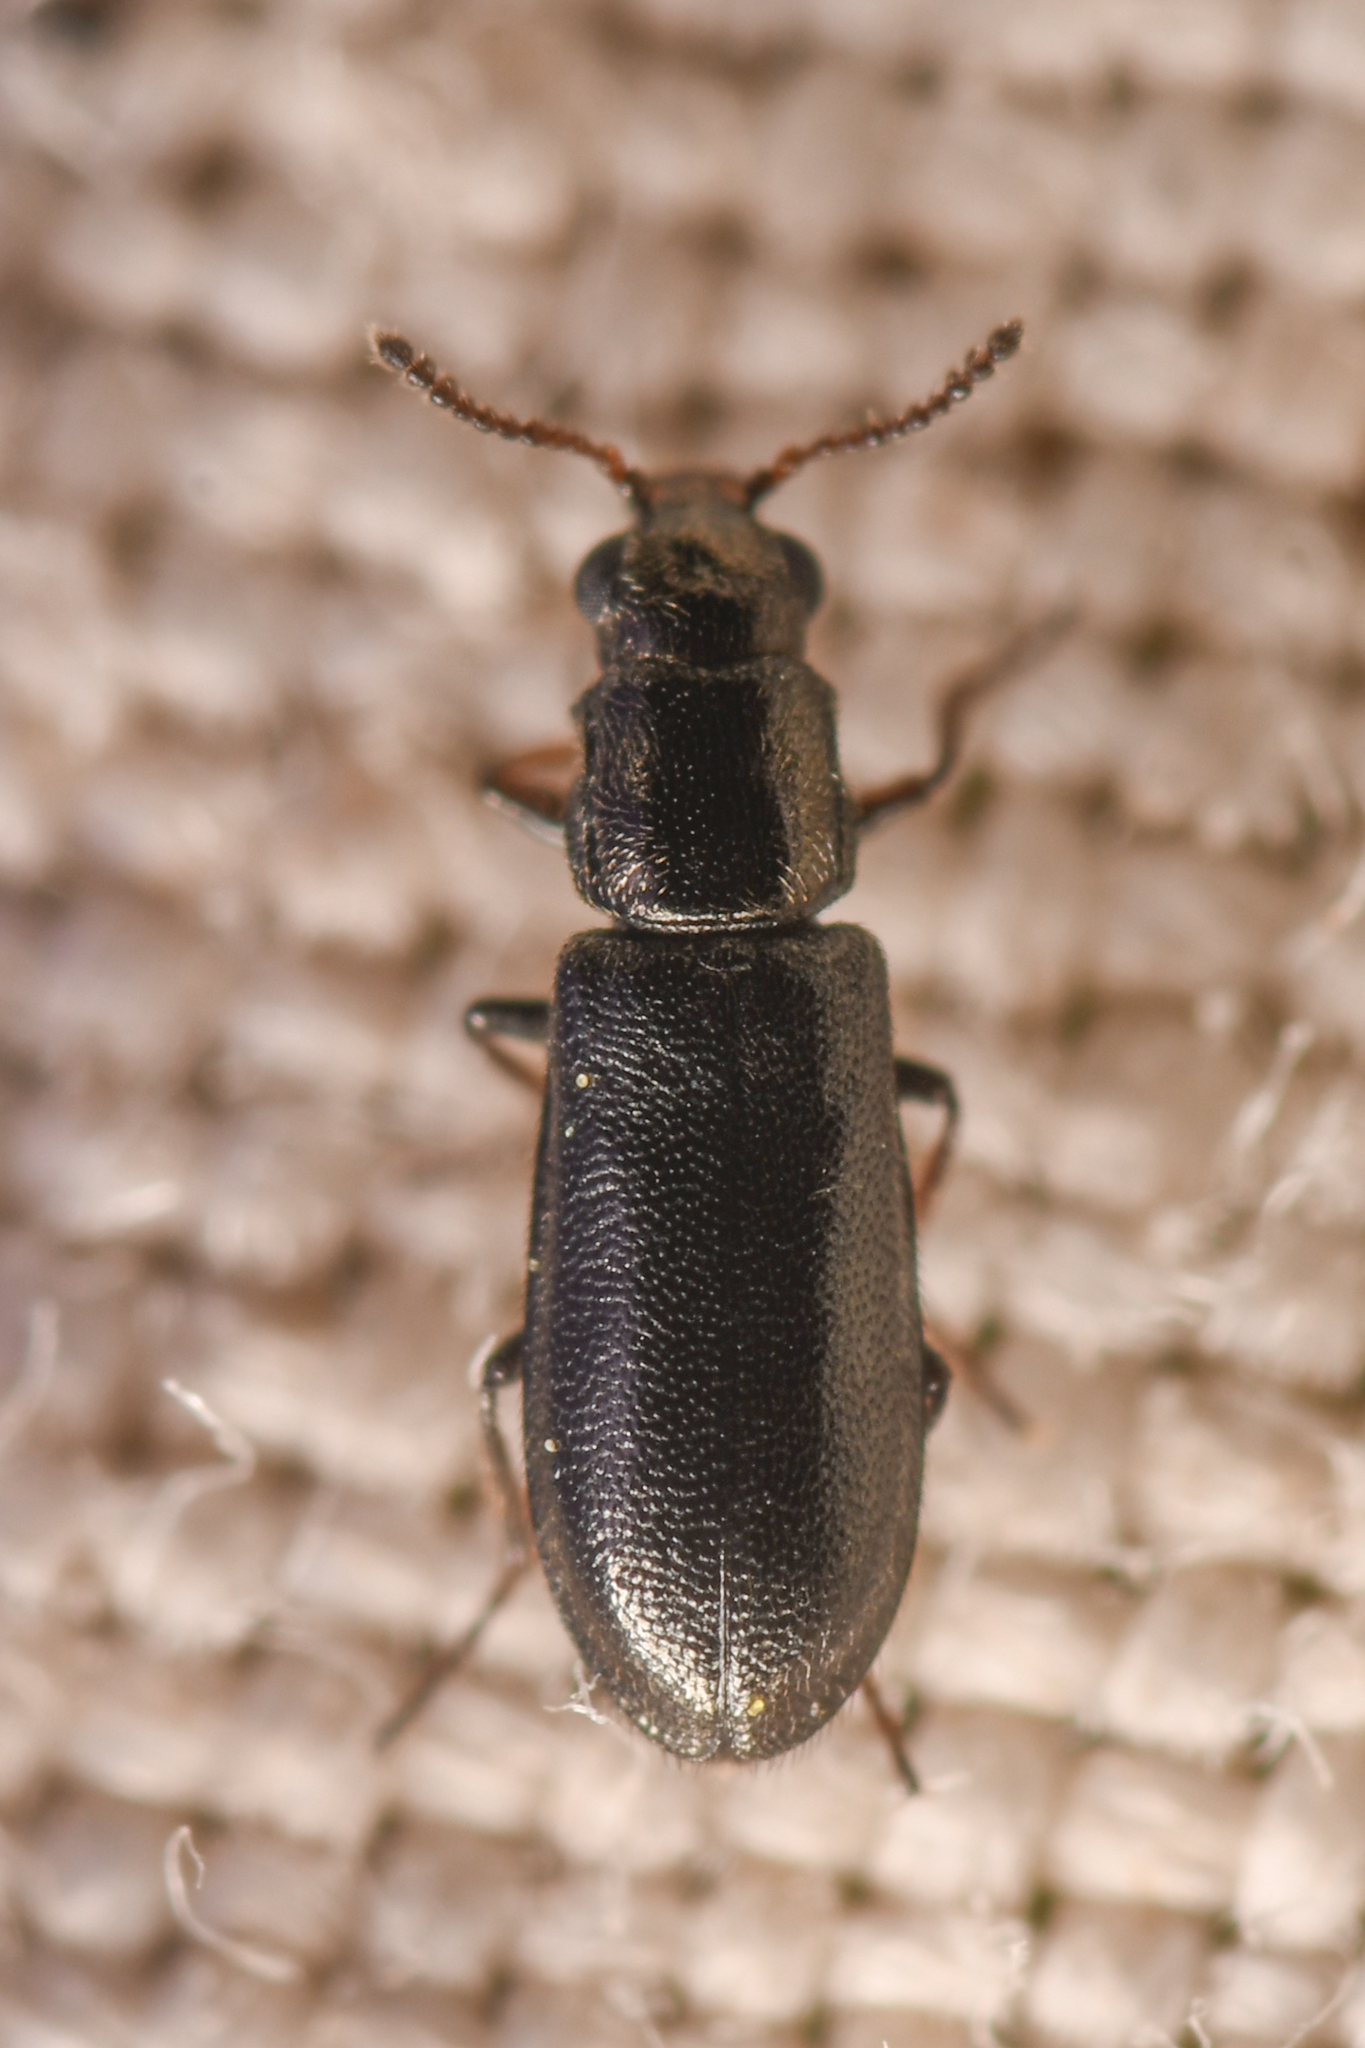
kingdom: Animalia
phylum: Arthropoda
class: Insecta
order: Coleoptera
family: Melyridae
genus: Eschatocrepis
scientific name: Eschatocrepis
